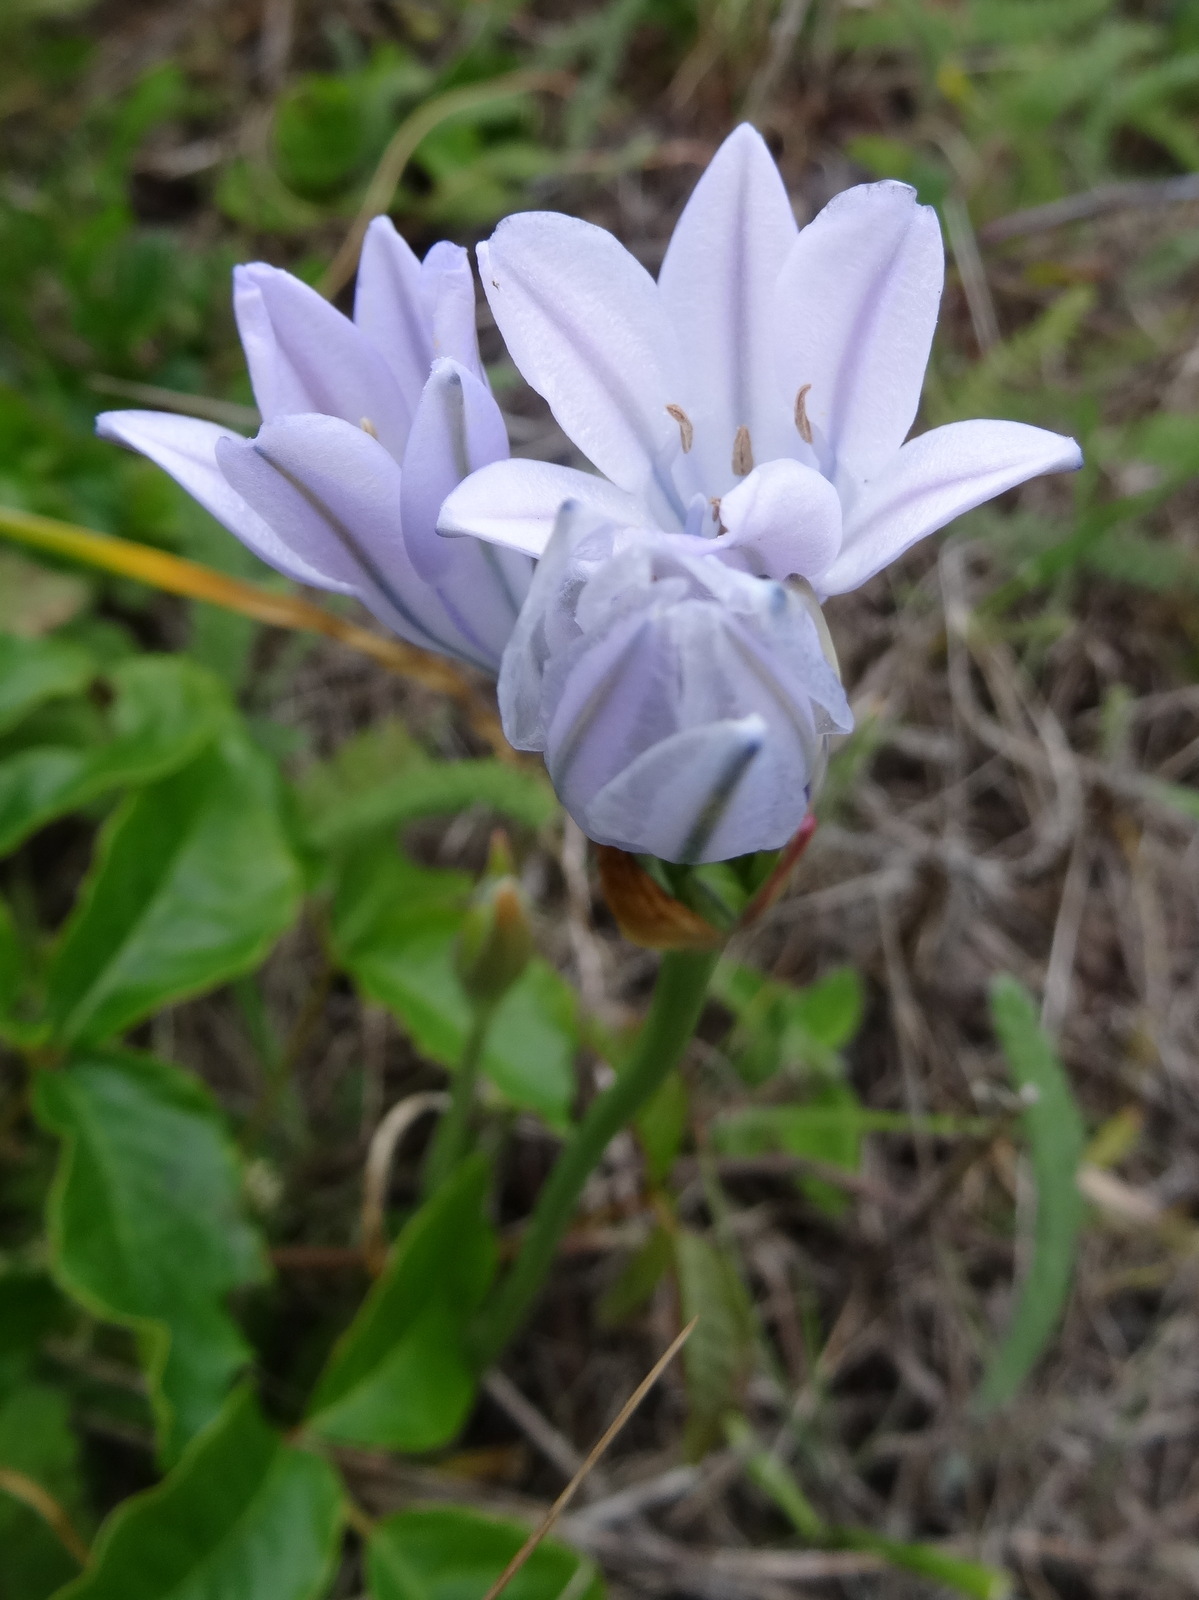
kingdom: Plantae
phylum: Tracheophyta
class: Liliopsida
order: Asparagales
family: Asparagaceae
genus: Triteleia
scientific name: Triteleia laxa
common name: Triplet-lily
